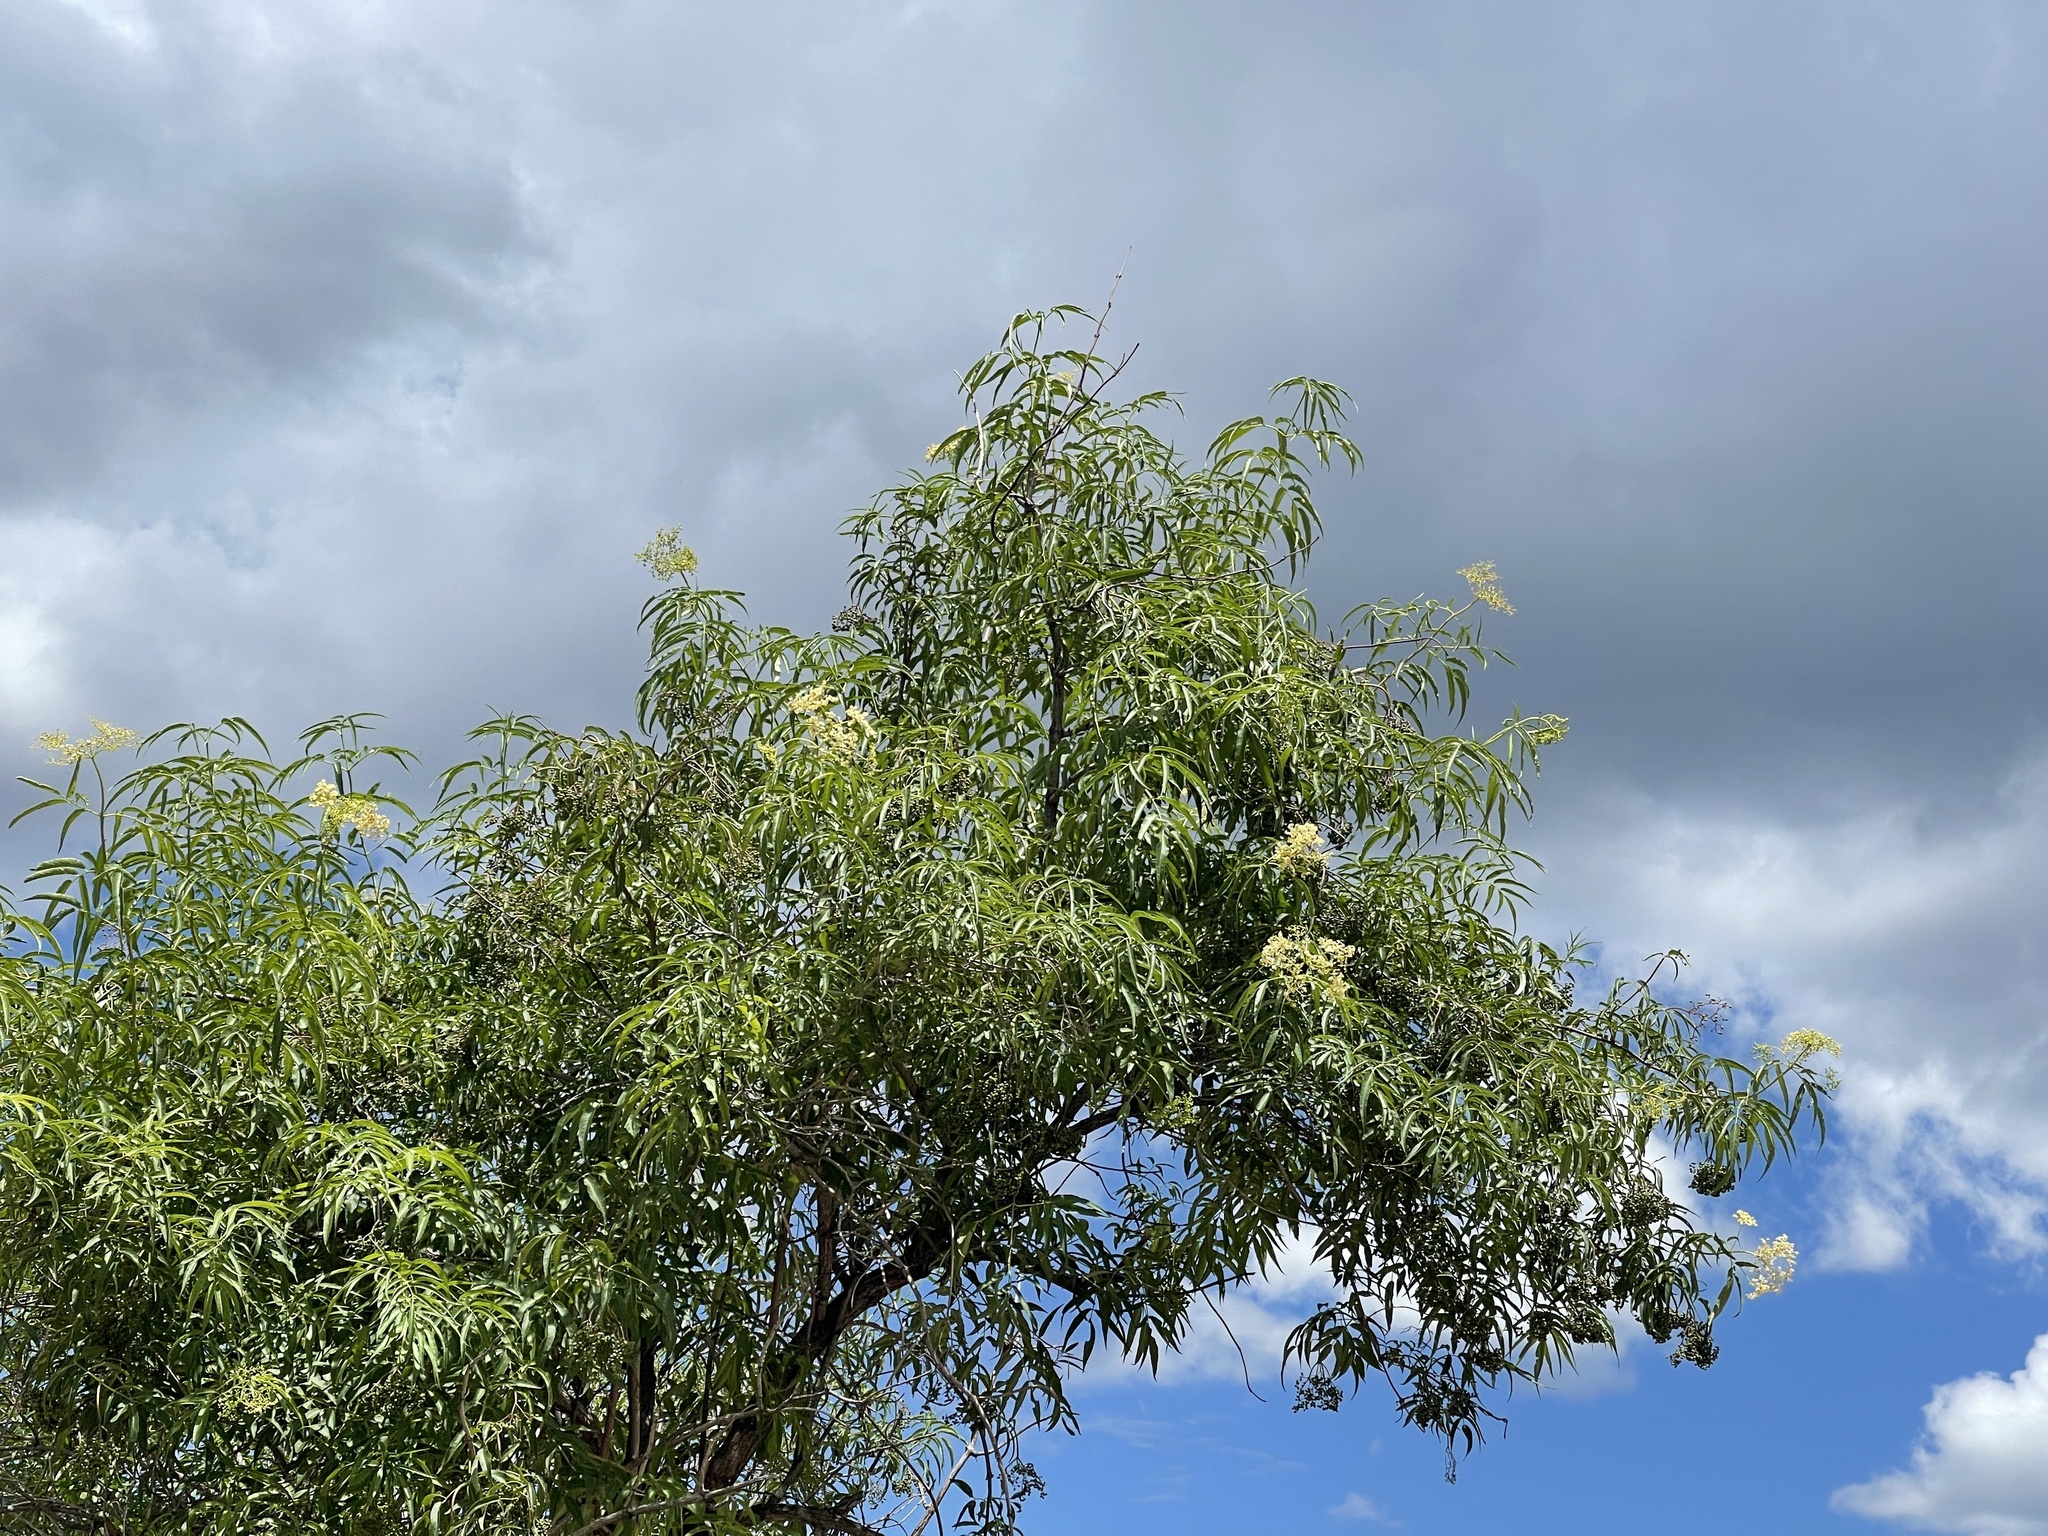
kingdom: Plantae
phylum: Tracheophyta
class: Magnoliopsida
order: Dipsacales
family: Viburnaceae
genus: Sambucus
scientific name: Sambucus cerulea
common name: Blue elder
